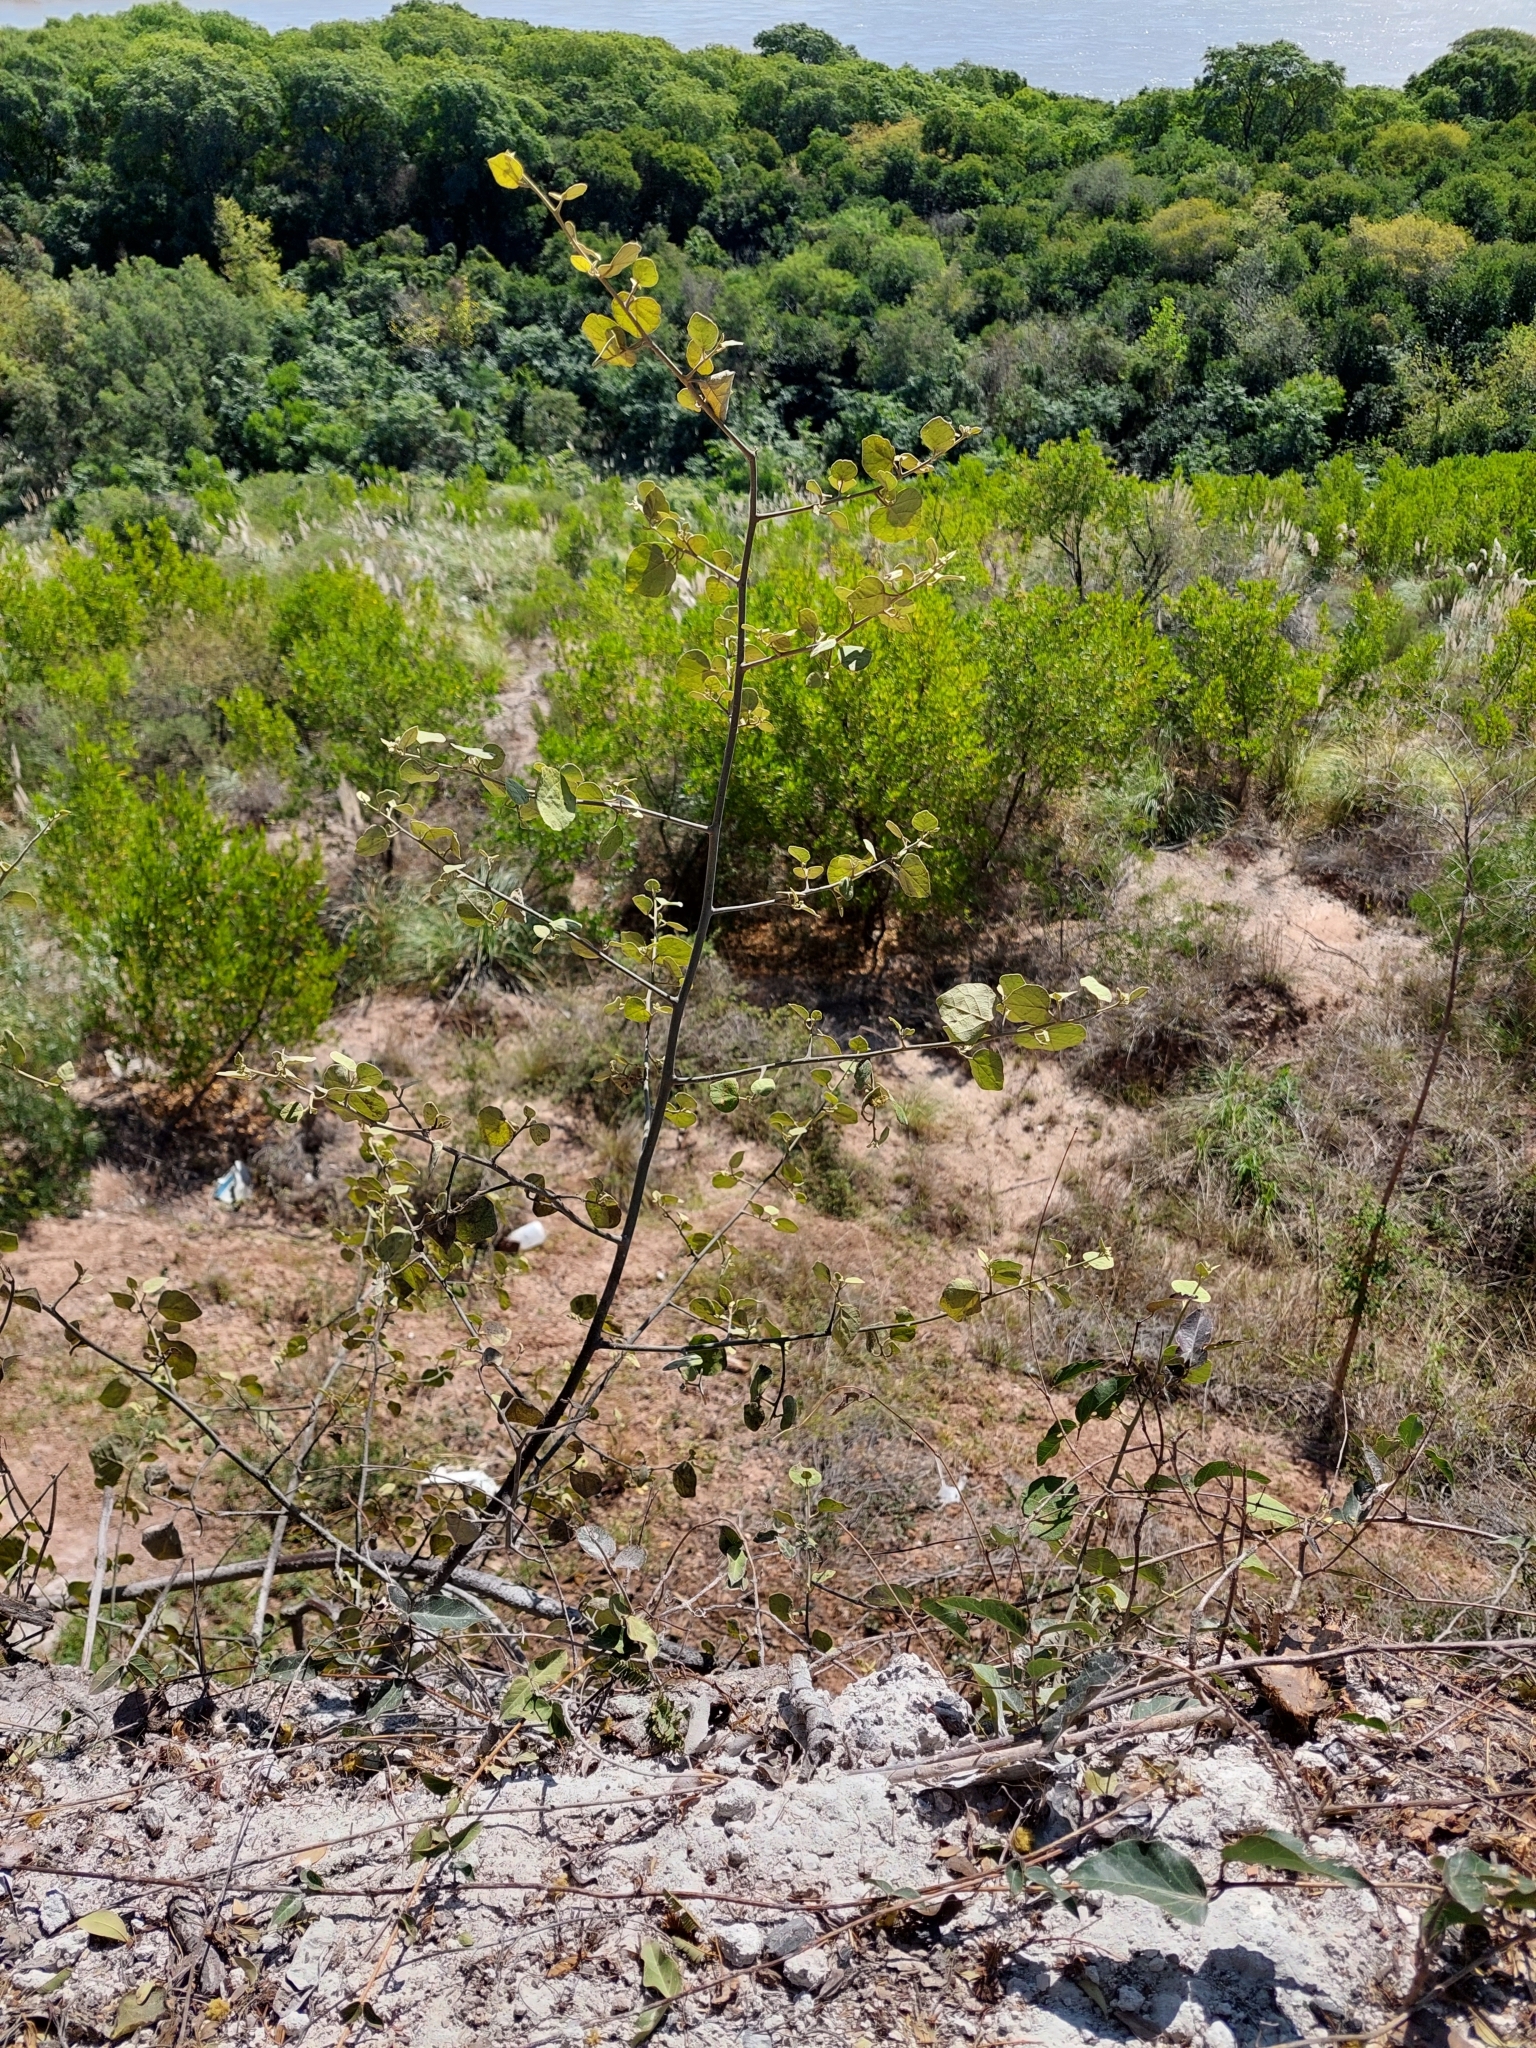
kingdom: Plantae
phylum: Tracheophyta
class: Magnoliopsida
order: Brassicales
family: Capparaceae
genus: Capparicordis
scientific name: Capparicordis tweedieana
